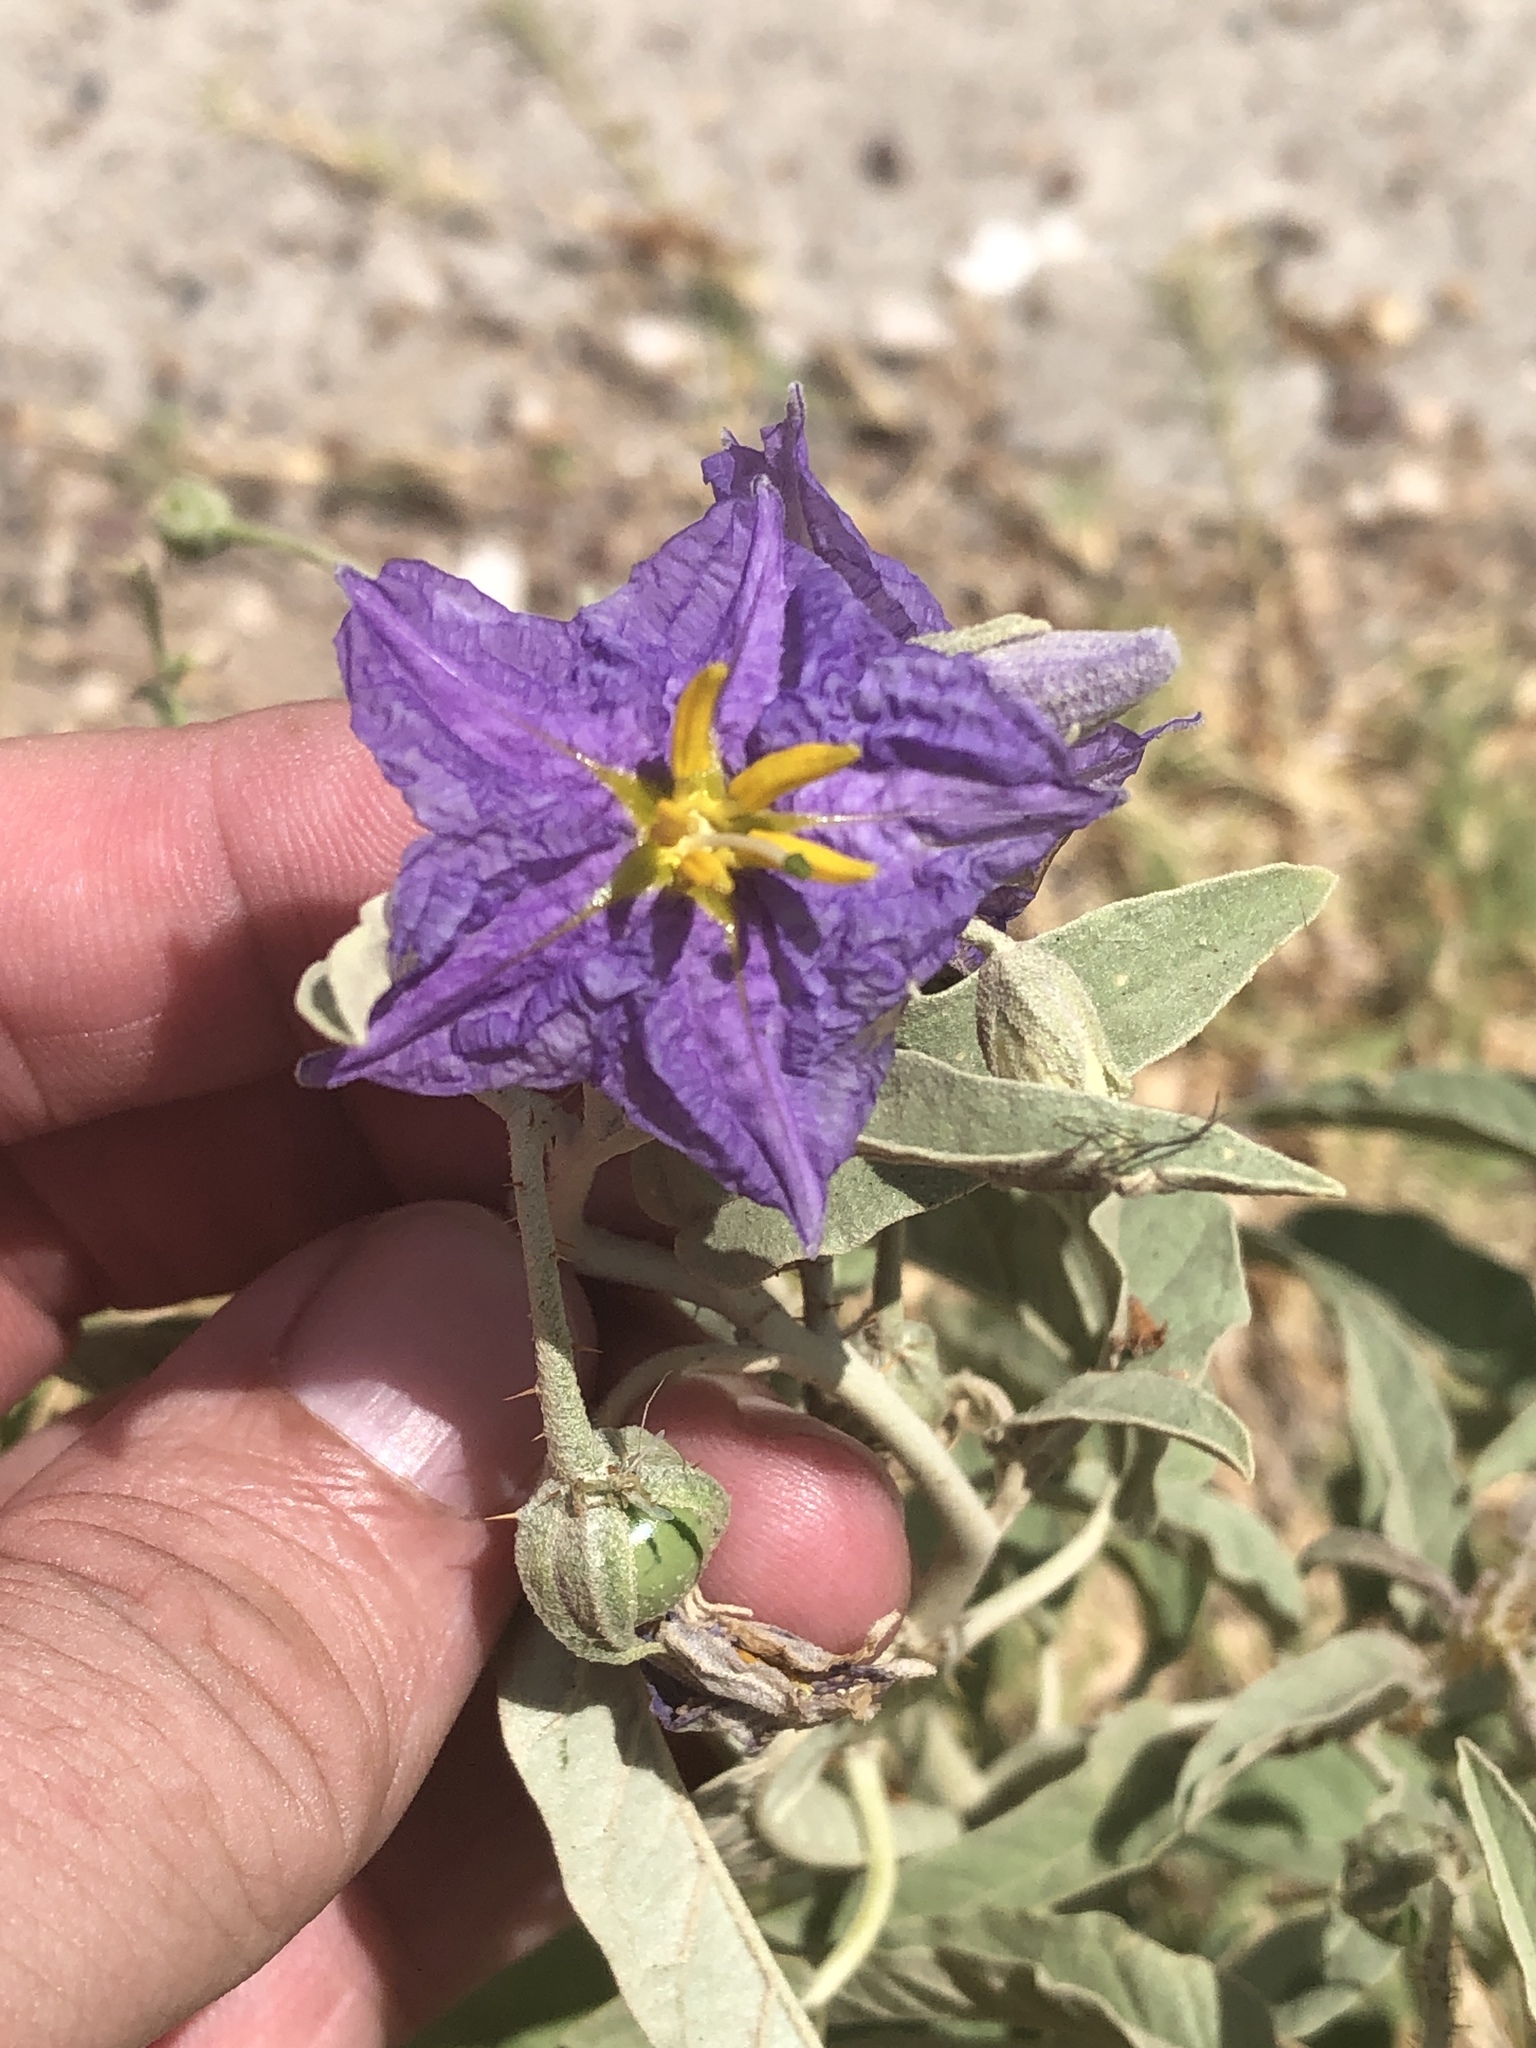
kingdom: Plantae
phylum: Tracheophyta
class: Magnoliopsida
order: Solanales
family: Solanaceae
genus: Solanum
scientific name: Solanum elaeagnifolium
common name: Silverleaf nightshade
